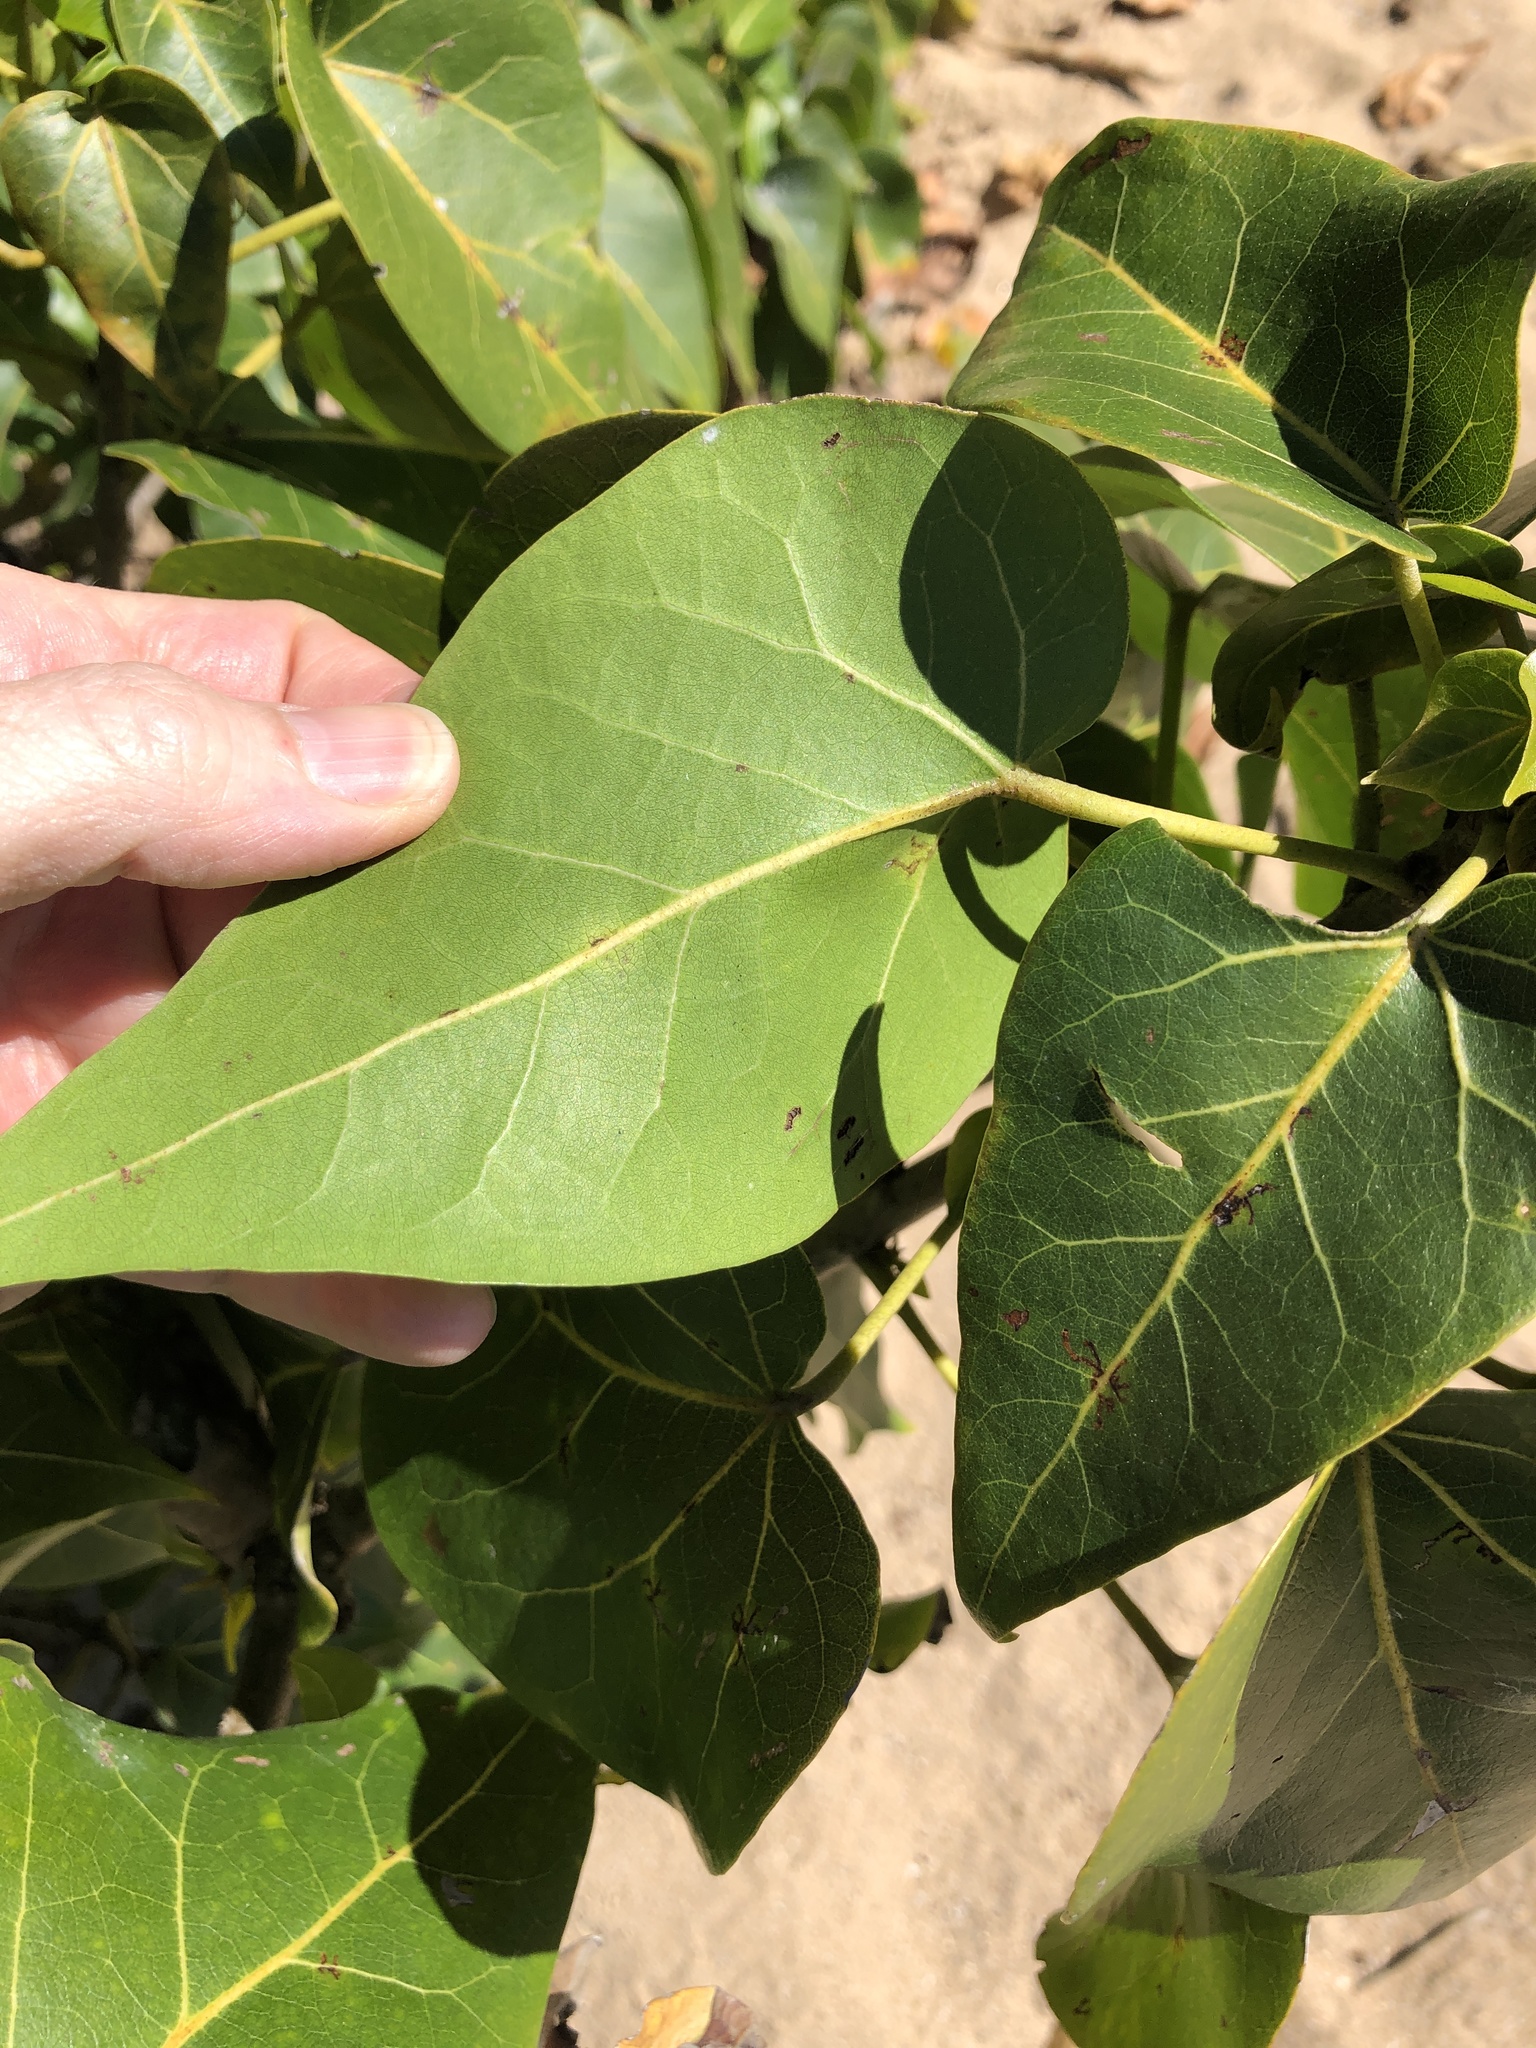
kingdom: Plantae
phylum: Tracheophyta
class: Magnoliopsida
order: Malvales
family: Malvaceae
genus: Thespesia
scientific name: Thespesia populnea
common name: Seaside mahoe
